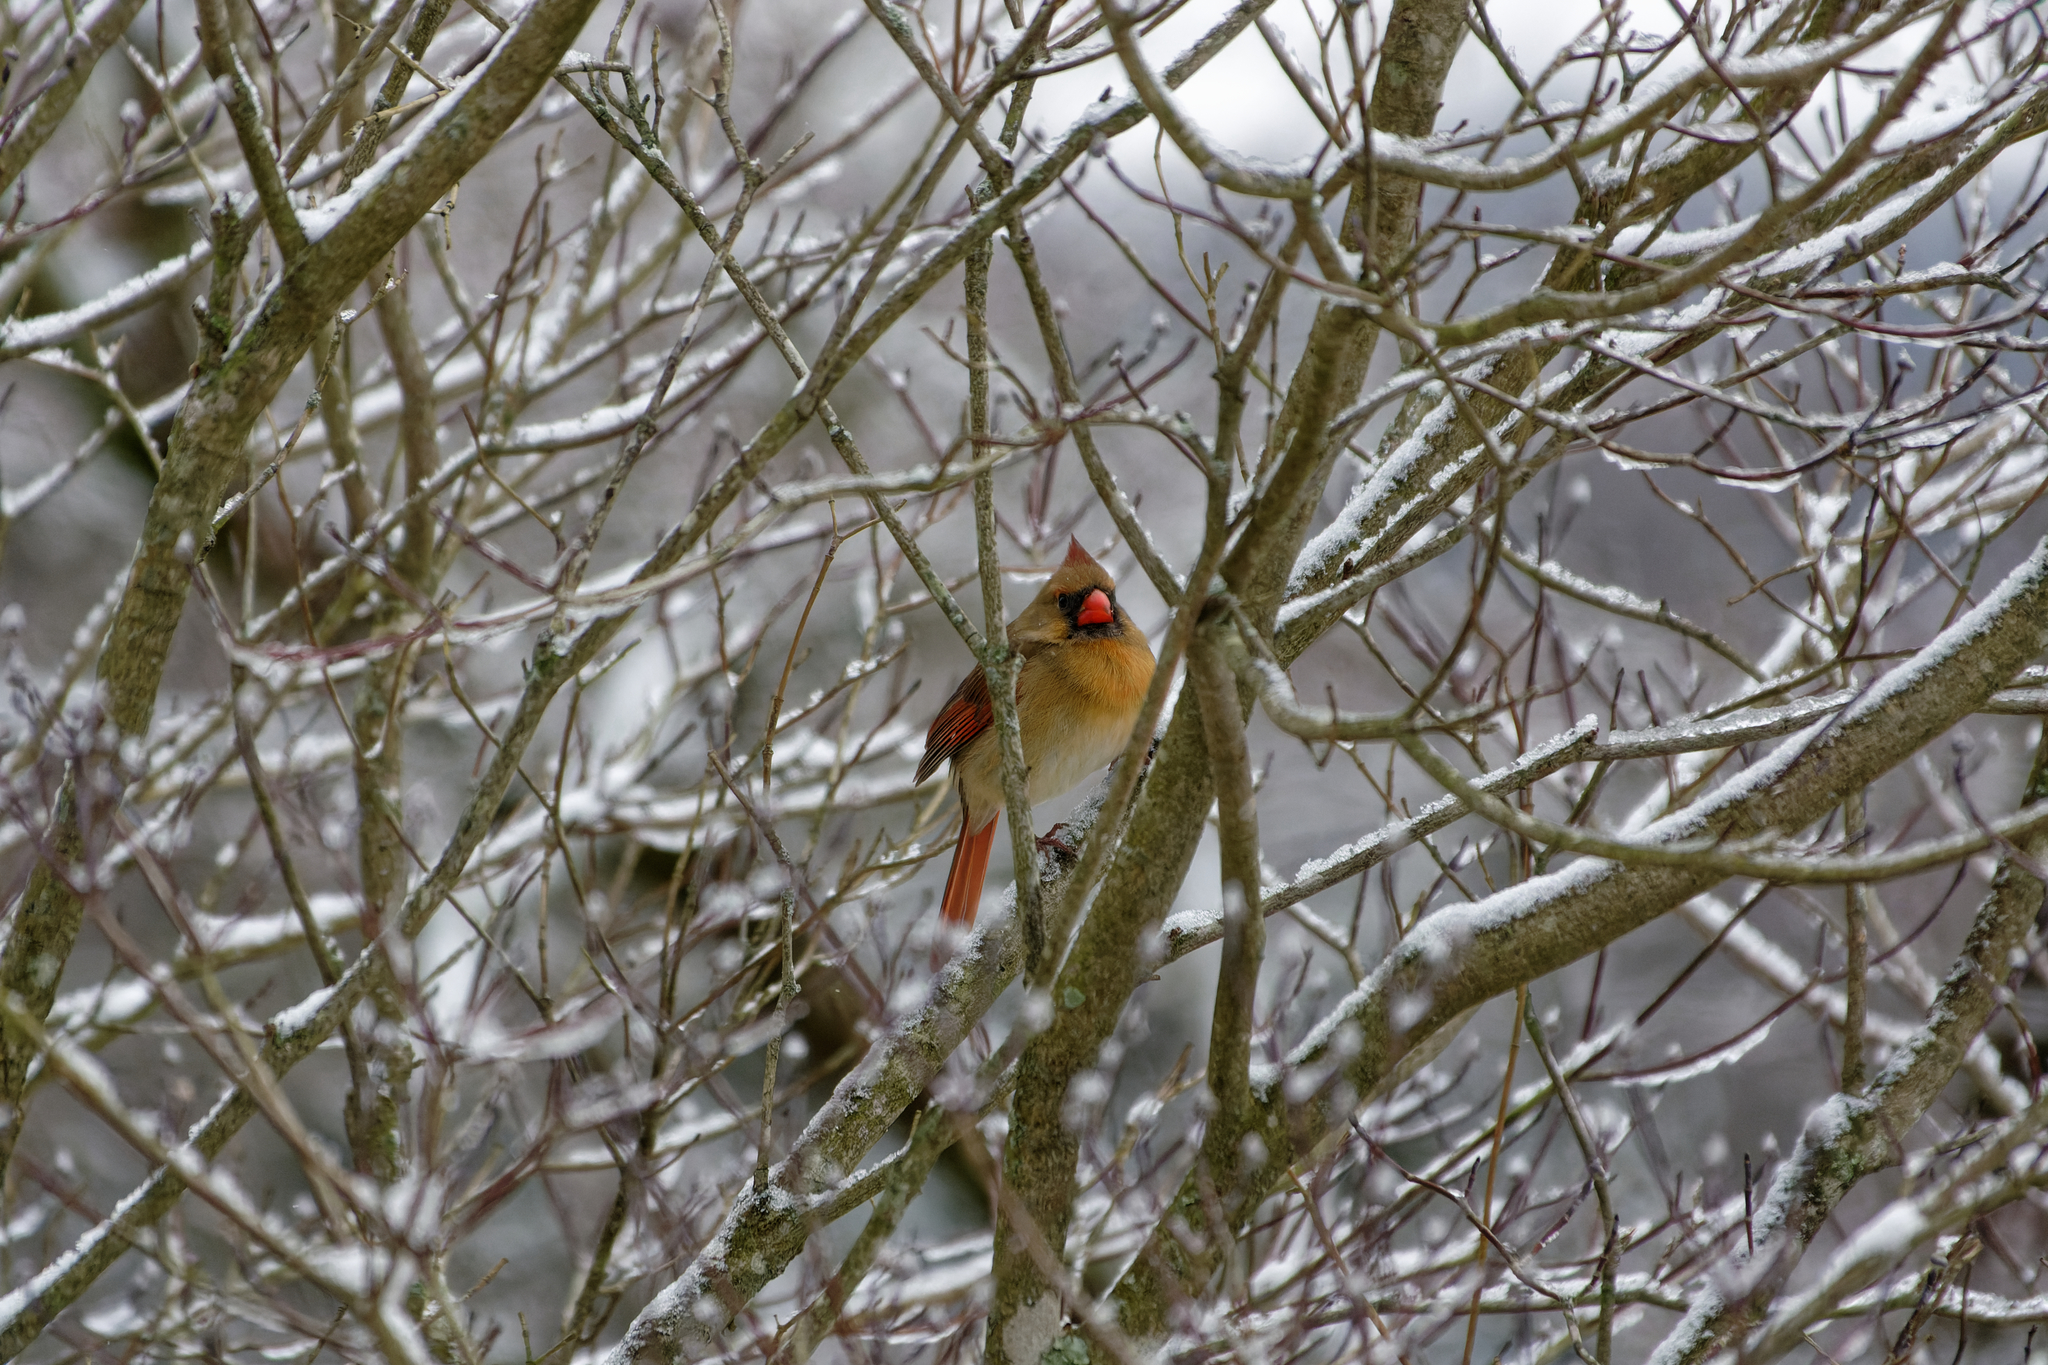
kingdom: Animalia
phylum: Chordata
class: Aves
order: Passeriformes
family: Cardinalidae
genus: Cardinalis
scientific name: Cardinalis cardinalis
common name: Northern cardinal
